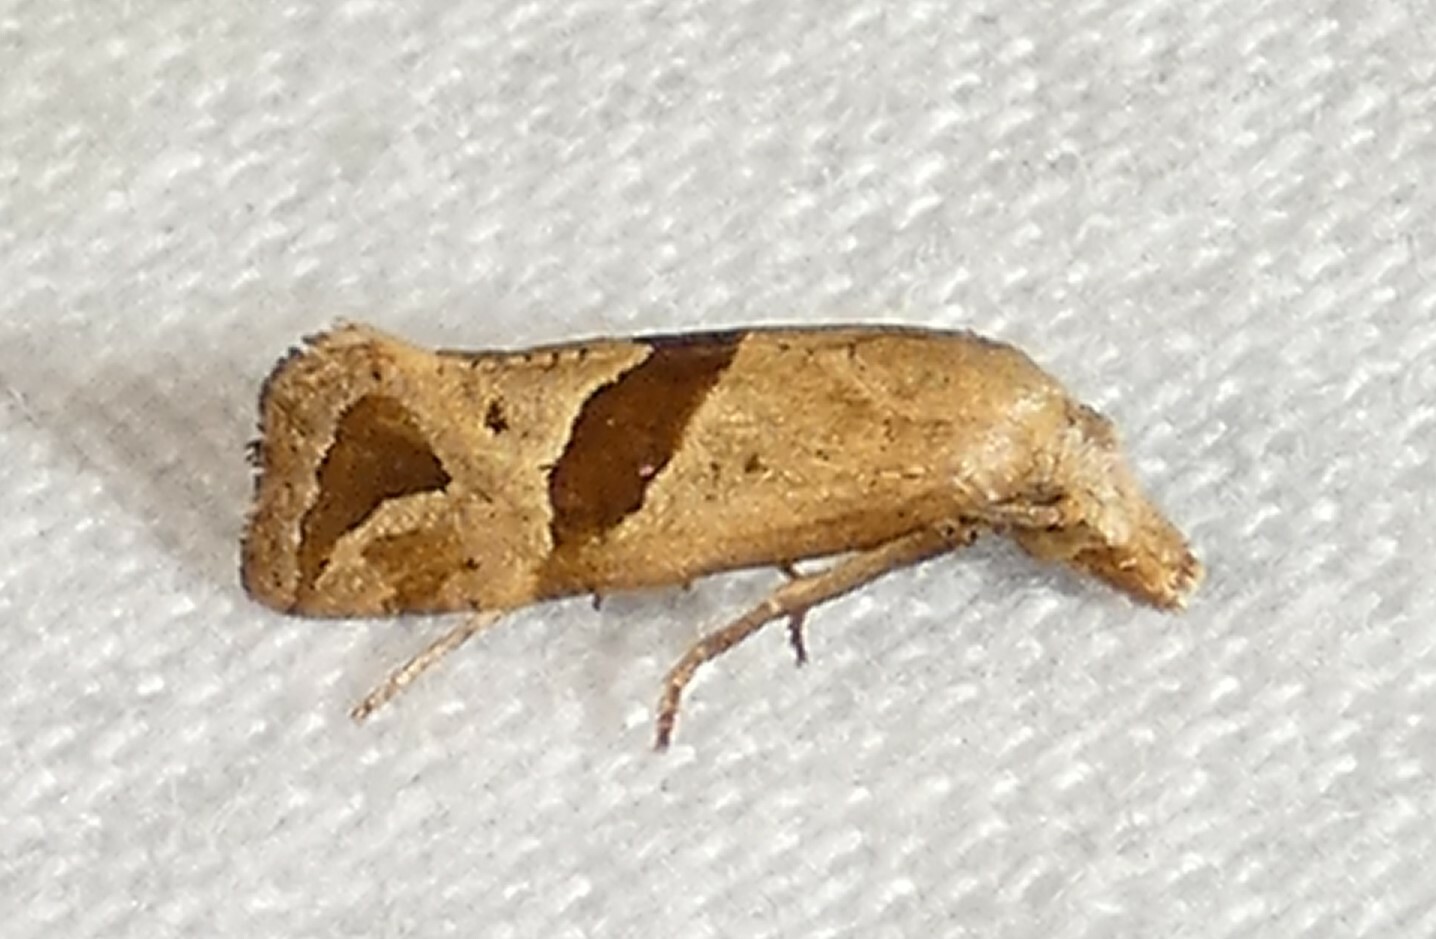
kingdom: Animalia
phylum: Arthropoda
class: Insecta
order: Lepidoptera
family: Tortricidae
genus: Eugnosta
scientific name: Eugnosta sartana
